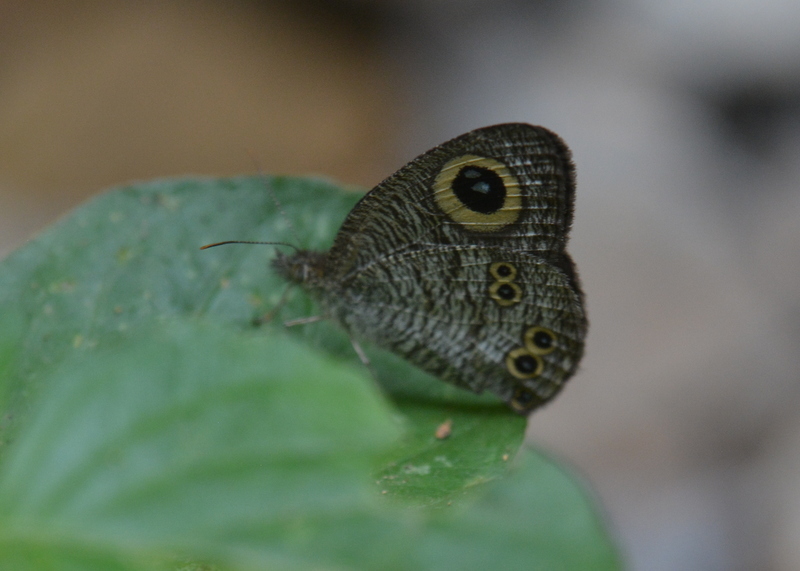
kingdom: Animalia
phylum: Arthropoda
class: Insecta
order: Lepidoptera
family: Nymphalidae
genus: Ypthima
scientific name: Ypthima baldus
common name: Common five-ring
